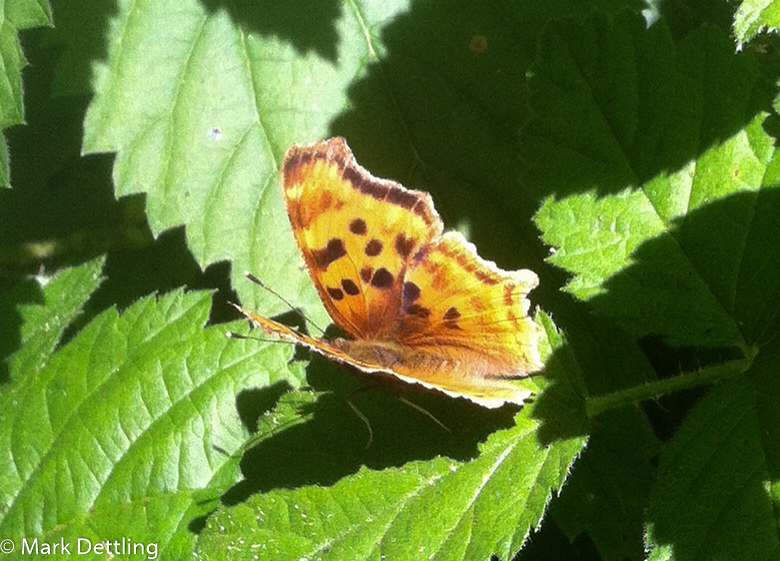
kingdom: Animalia
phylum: Arthropoda
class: Insecta
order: Lepidoptera
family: Nymphalidae
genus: Polygonia
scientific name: Polygonia satyrus
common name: Satyr angle wing
